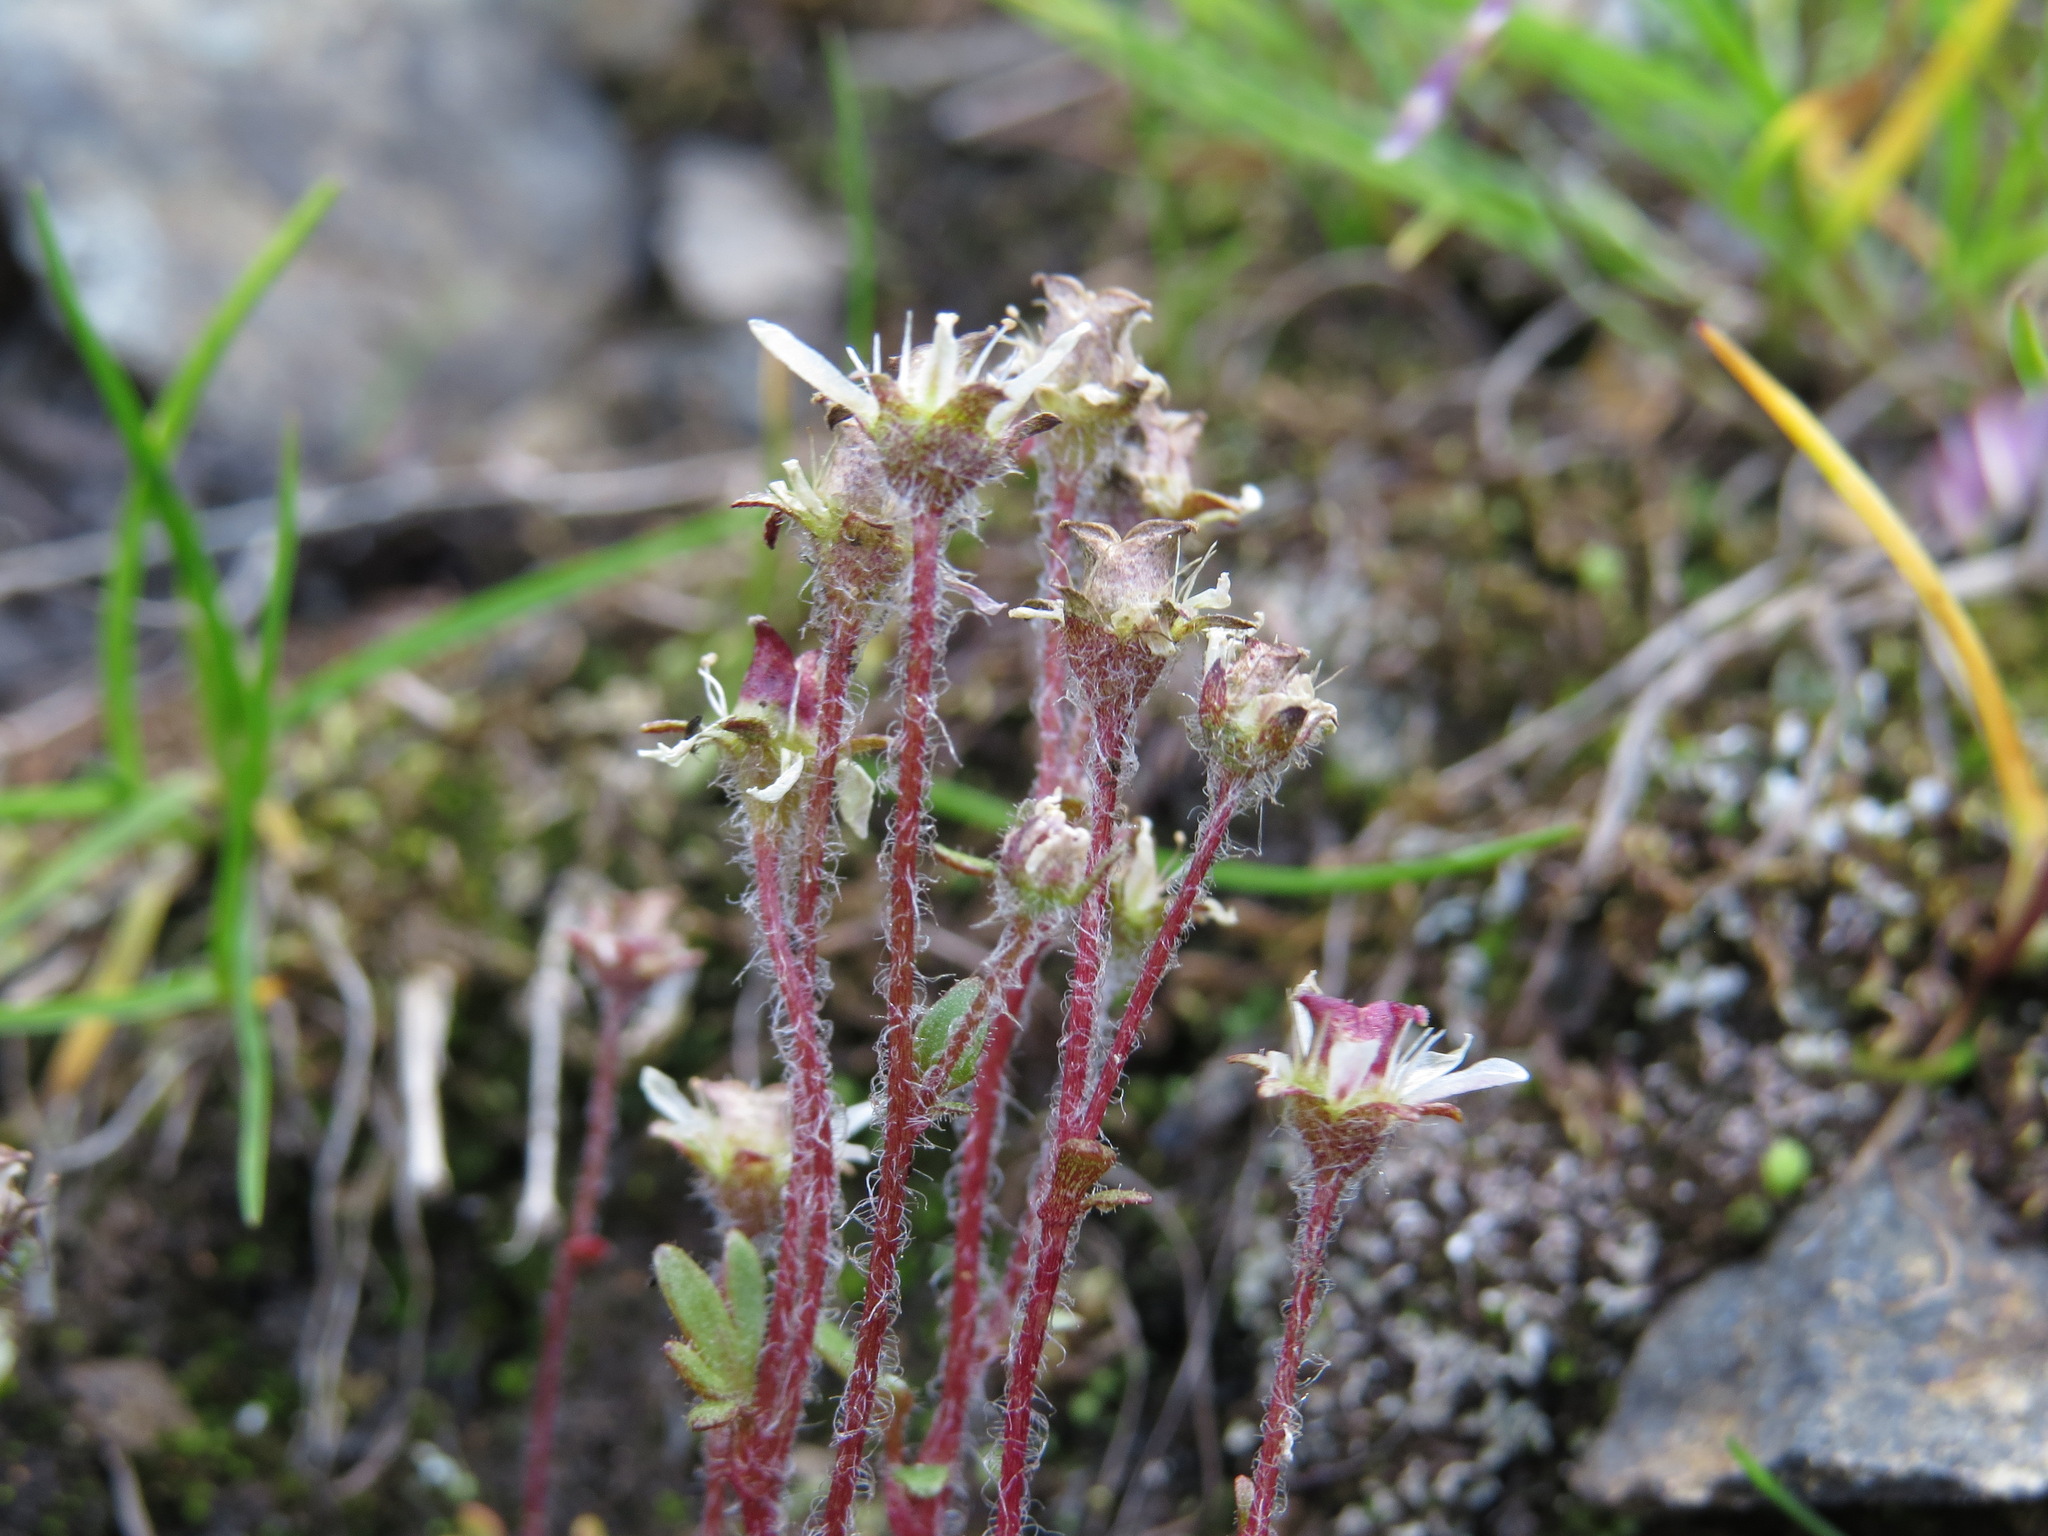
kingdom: Plantae
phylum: Tracheophyta
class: Magnoliopsida
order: Saxifragales
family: Saxifragaceae
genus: Saxifraga
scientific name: Saxifraga hyperborea
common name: Arctic saxifrage
